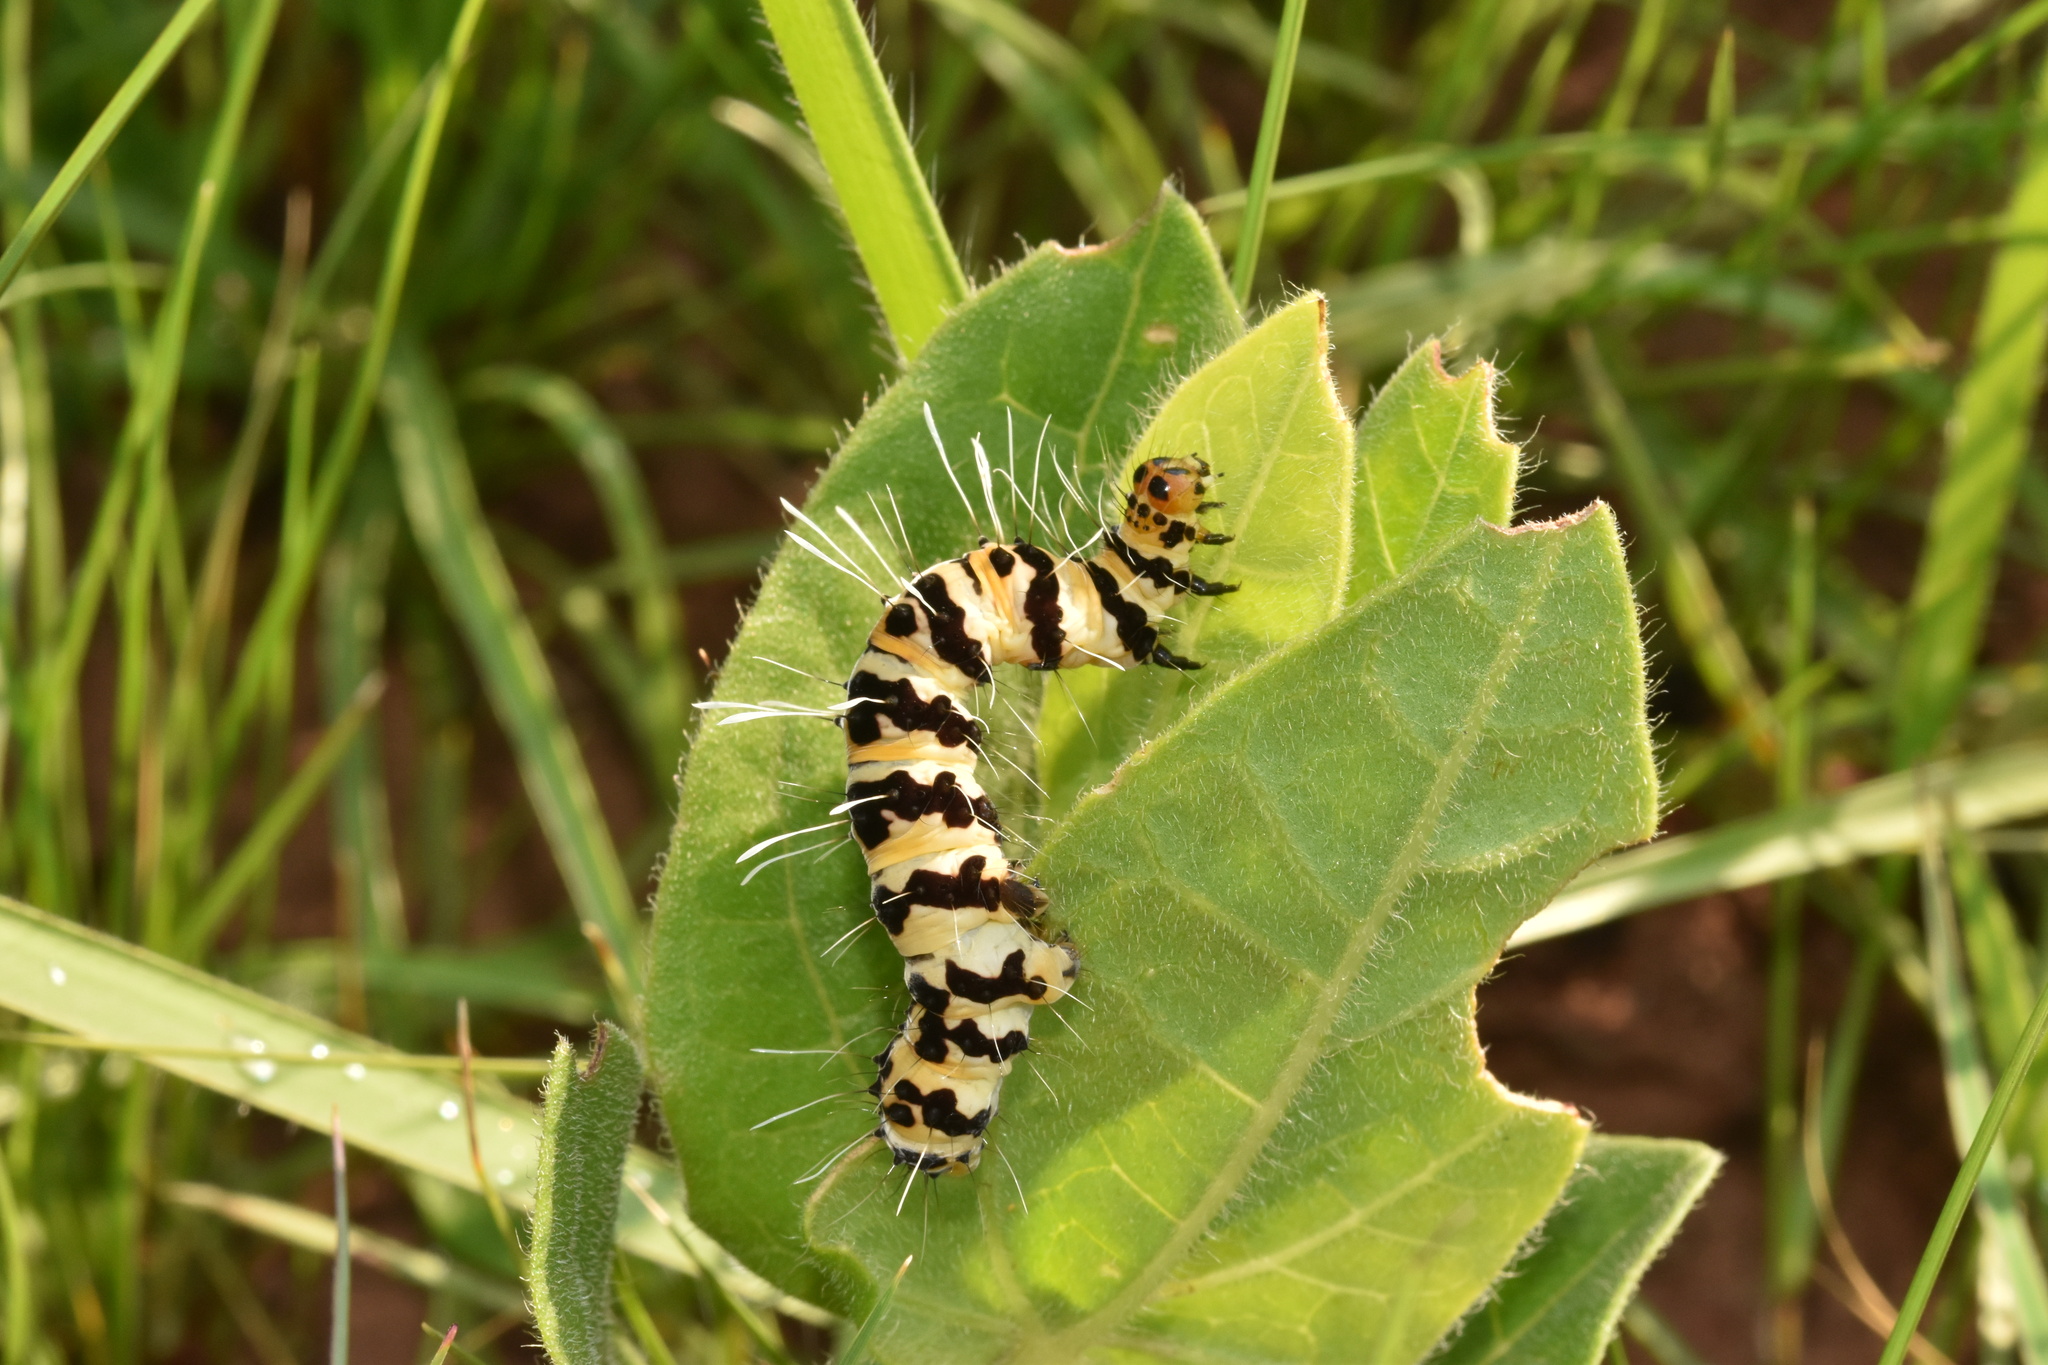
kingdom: Animalia
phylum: Arthropoda
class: Insecta
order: Lepidoptera
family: Erebidae
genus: Rhanidophora
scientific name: Rhanidophora phedonia
